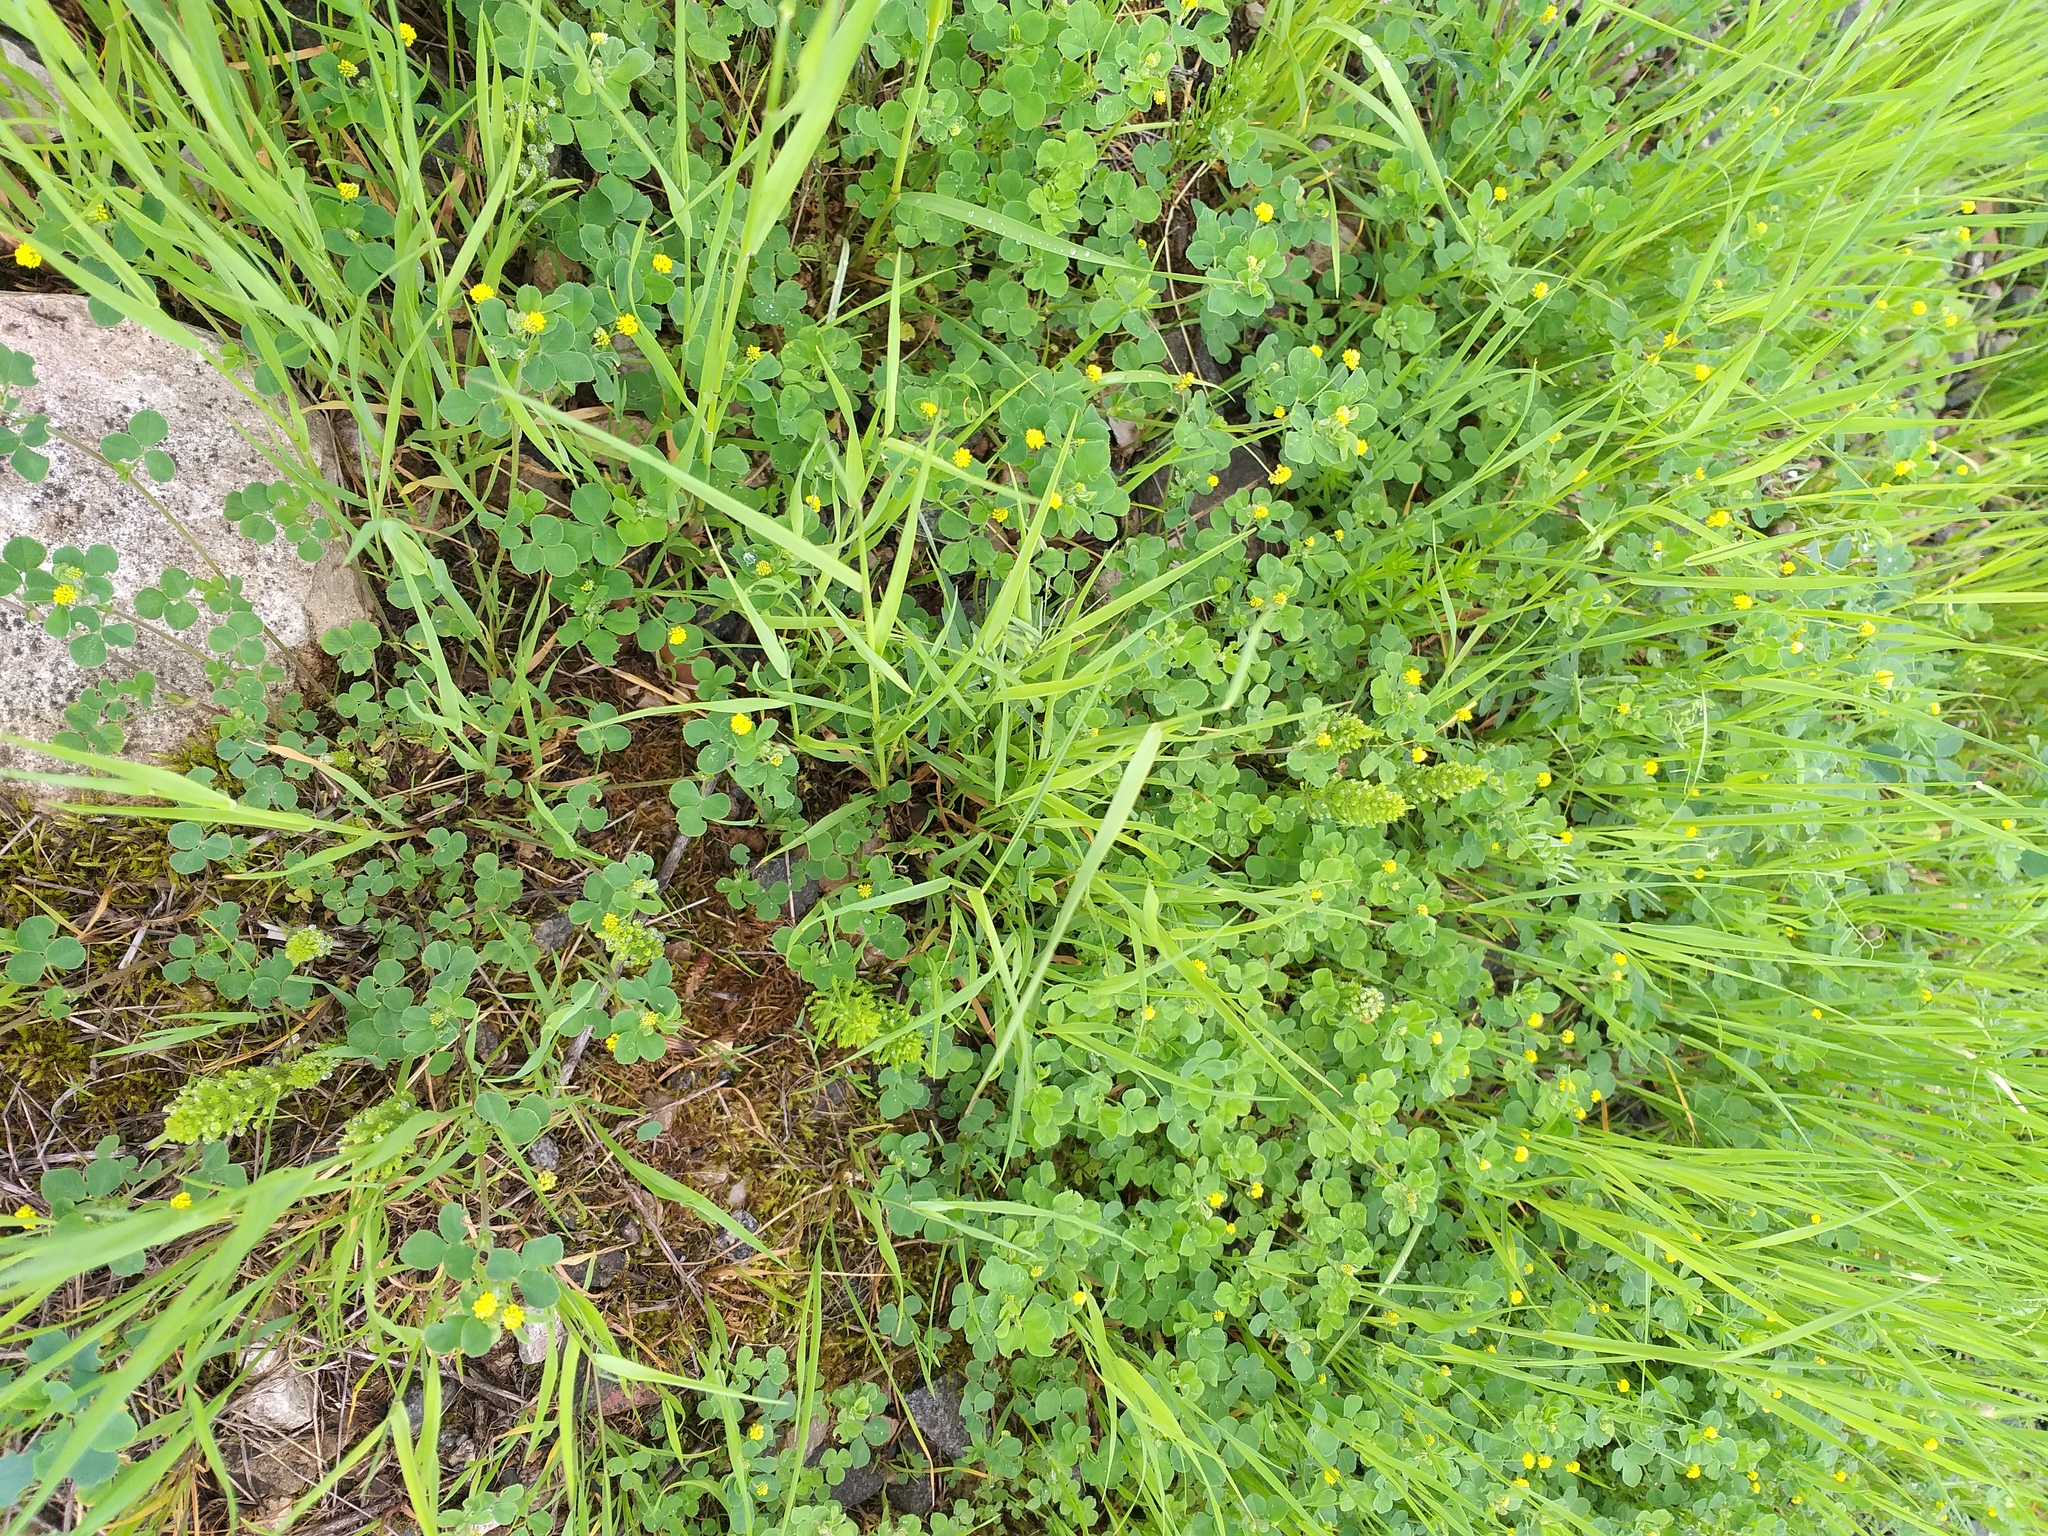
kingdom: Plantae
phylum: Tracheophyta
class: Magnoliopsida
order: Fabales
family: Fabaceae
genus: Medicago
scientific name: Medicago lupulina
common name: Black medick
